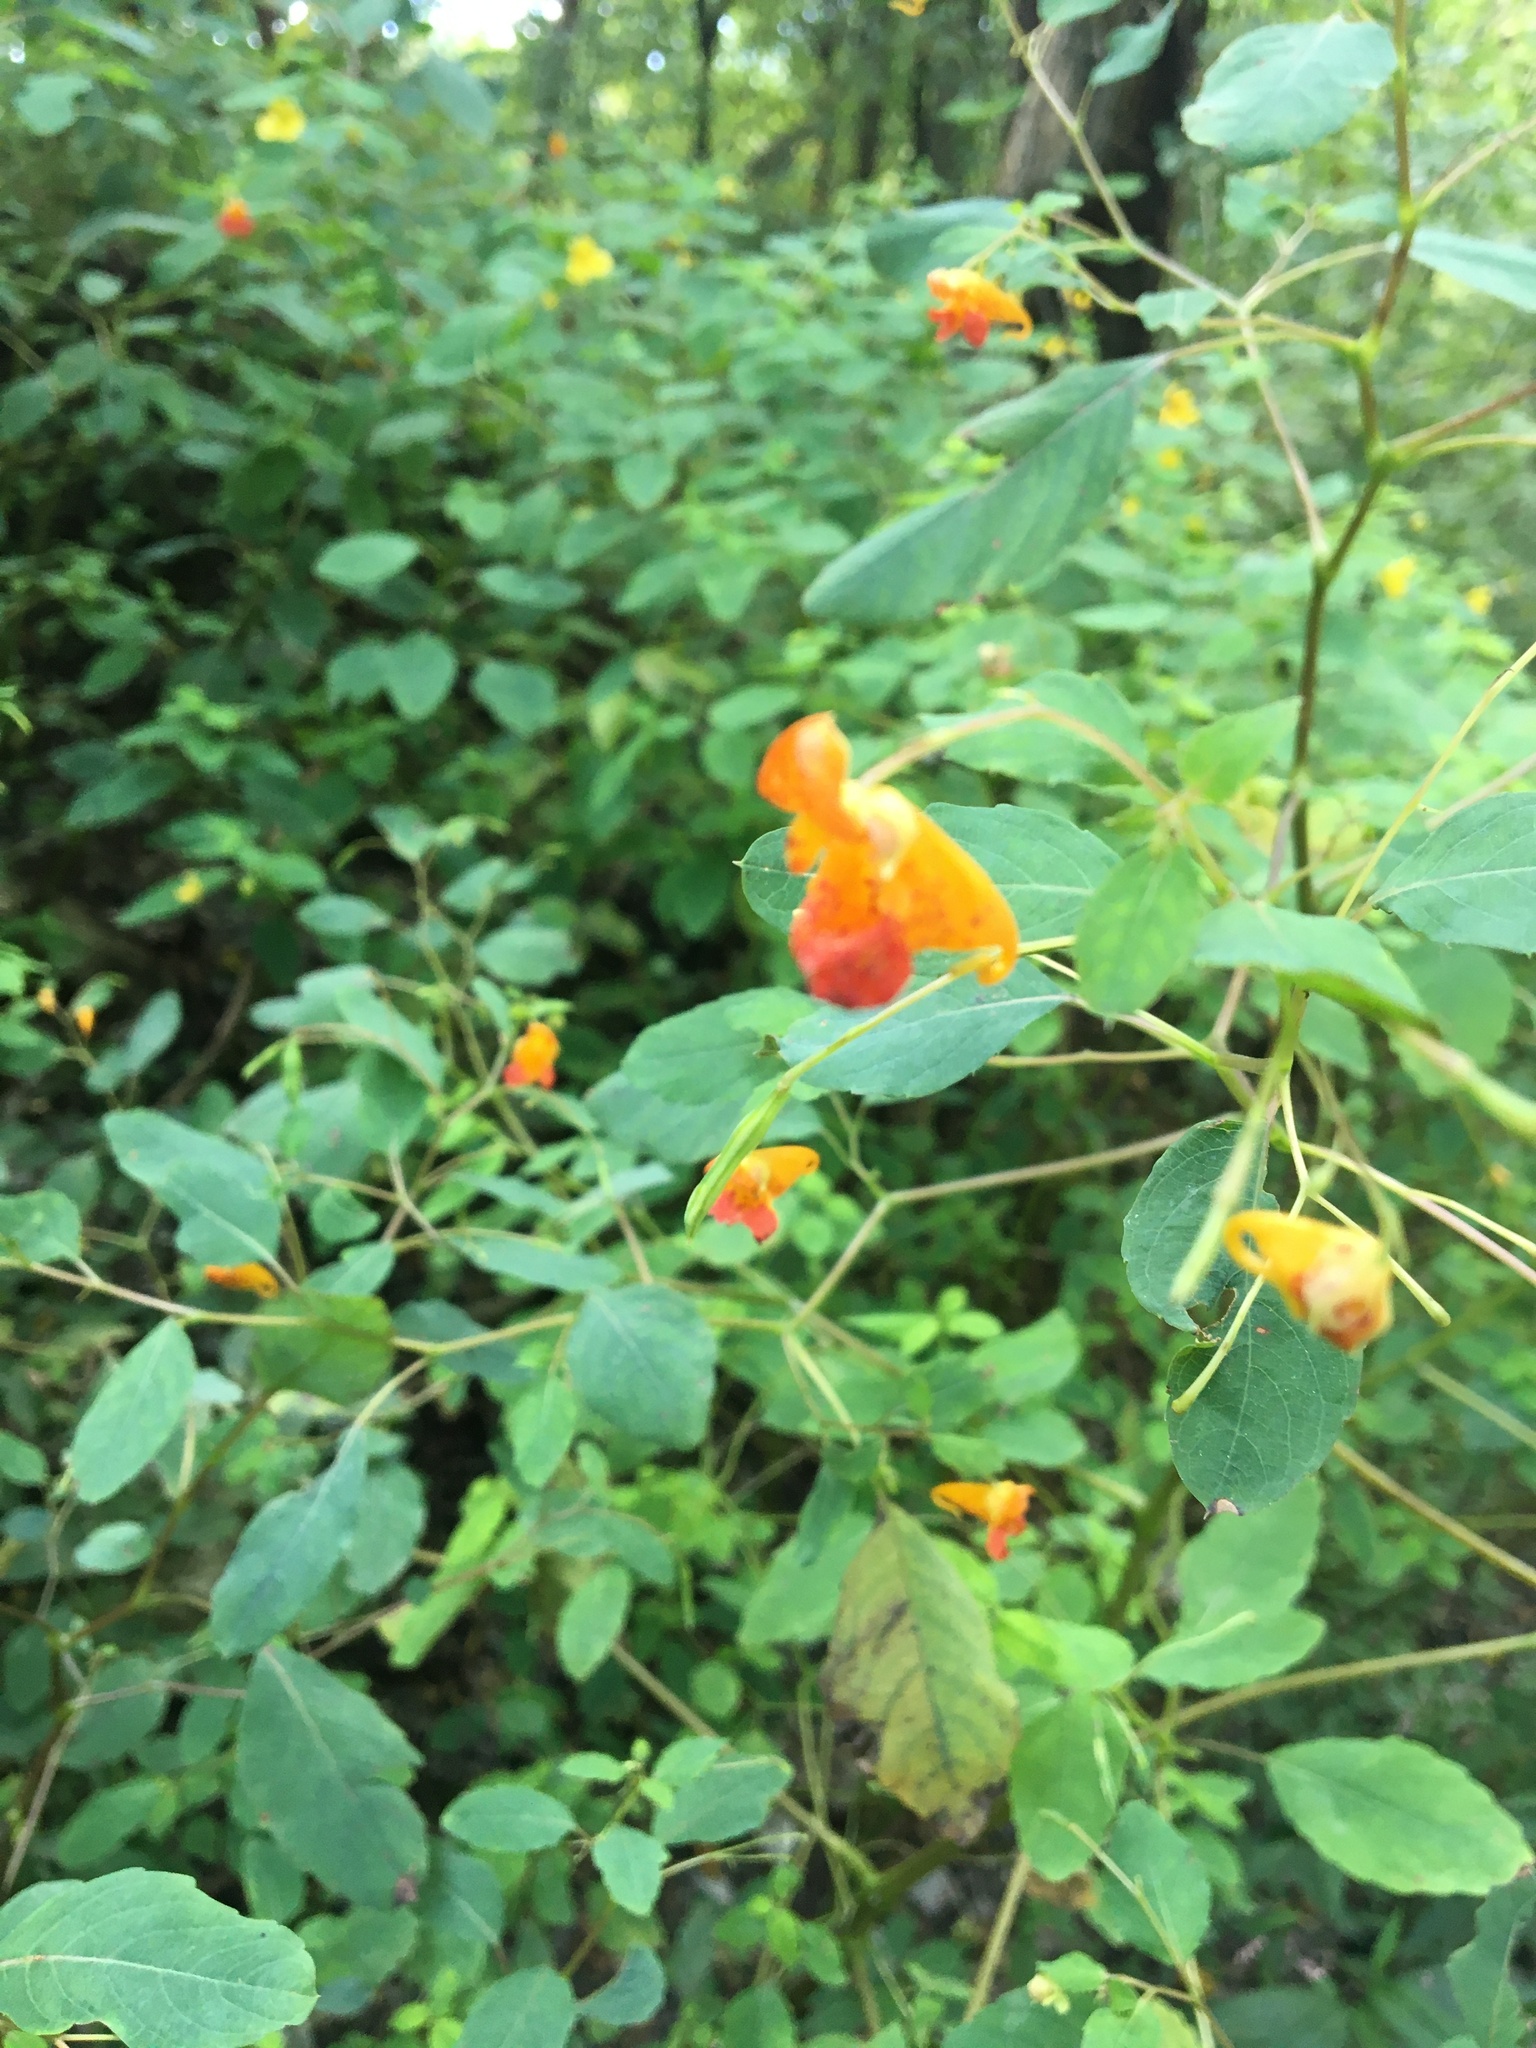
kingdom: Plantae
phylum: Tracheophyta
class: Magnoliopsida
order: Ericales
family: Balsaminaceae
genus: Impatiens
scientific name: Impatiens capensis
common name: Orange balsam
